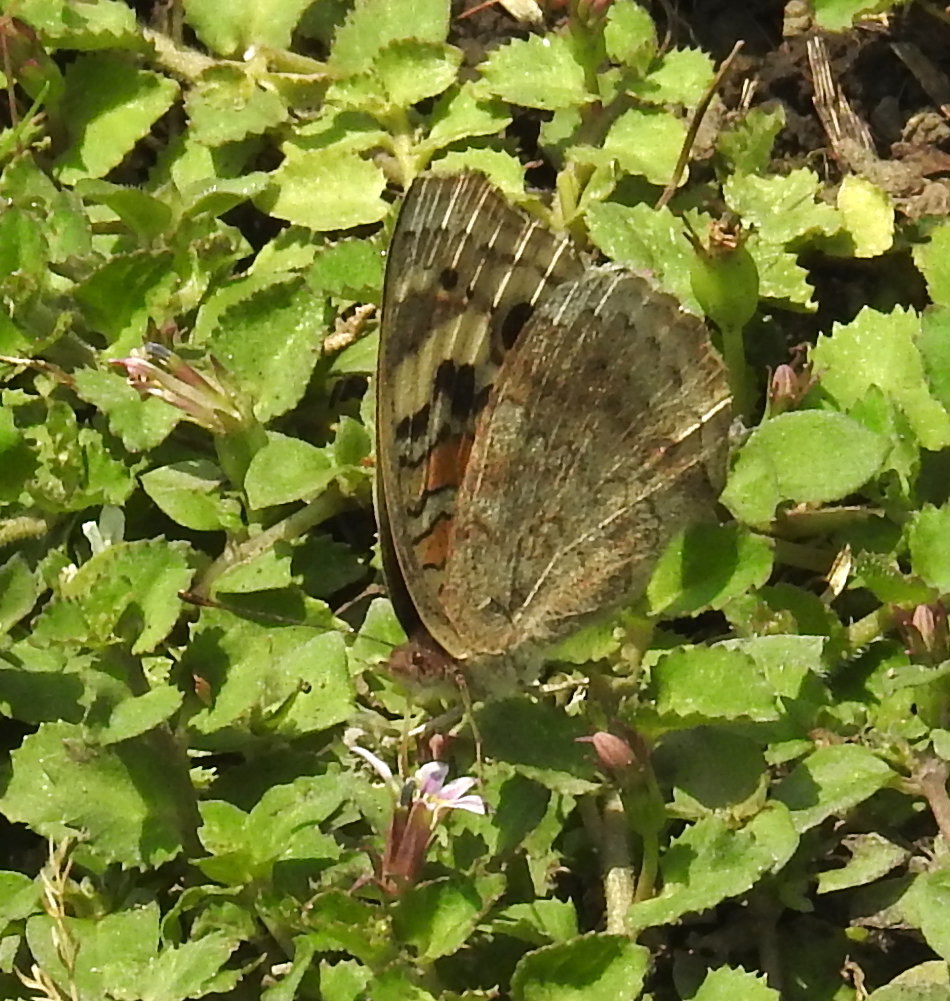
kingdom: Animalia
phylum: Arthropoda
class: Insecta
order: Lepidoptera
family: Nymphalidae
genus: Junonia
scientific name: Junonia orithya
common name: Blue pansy
